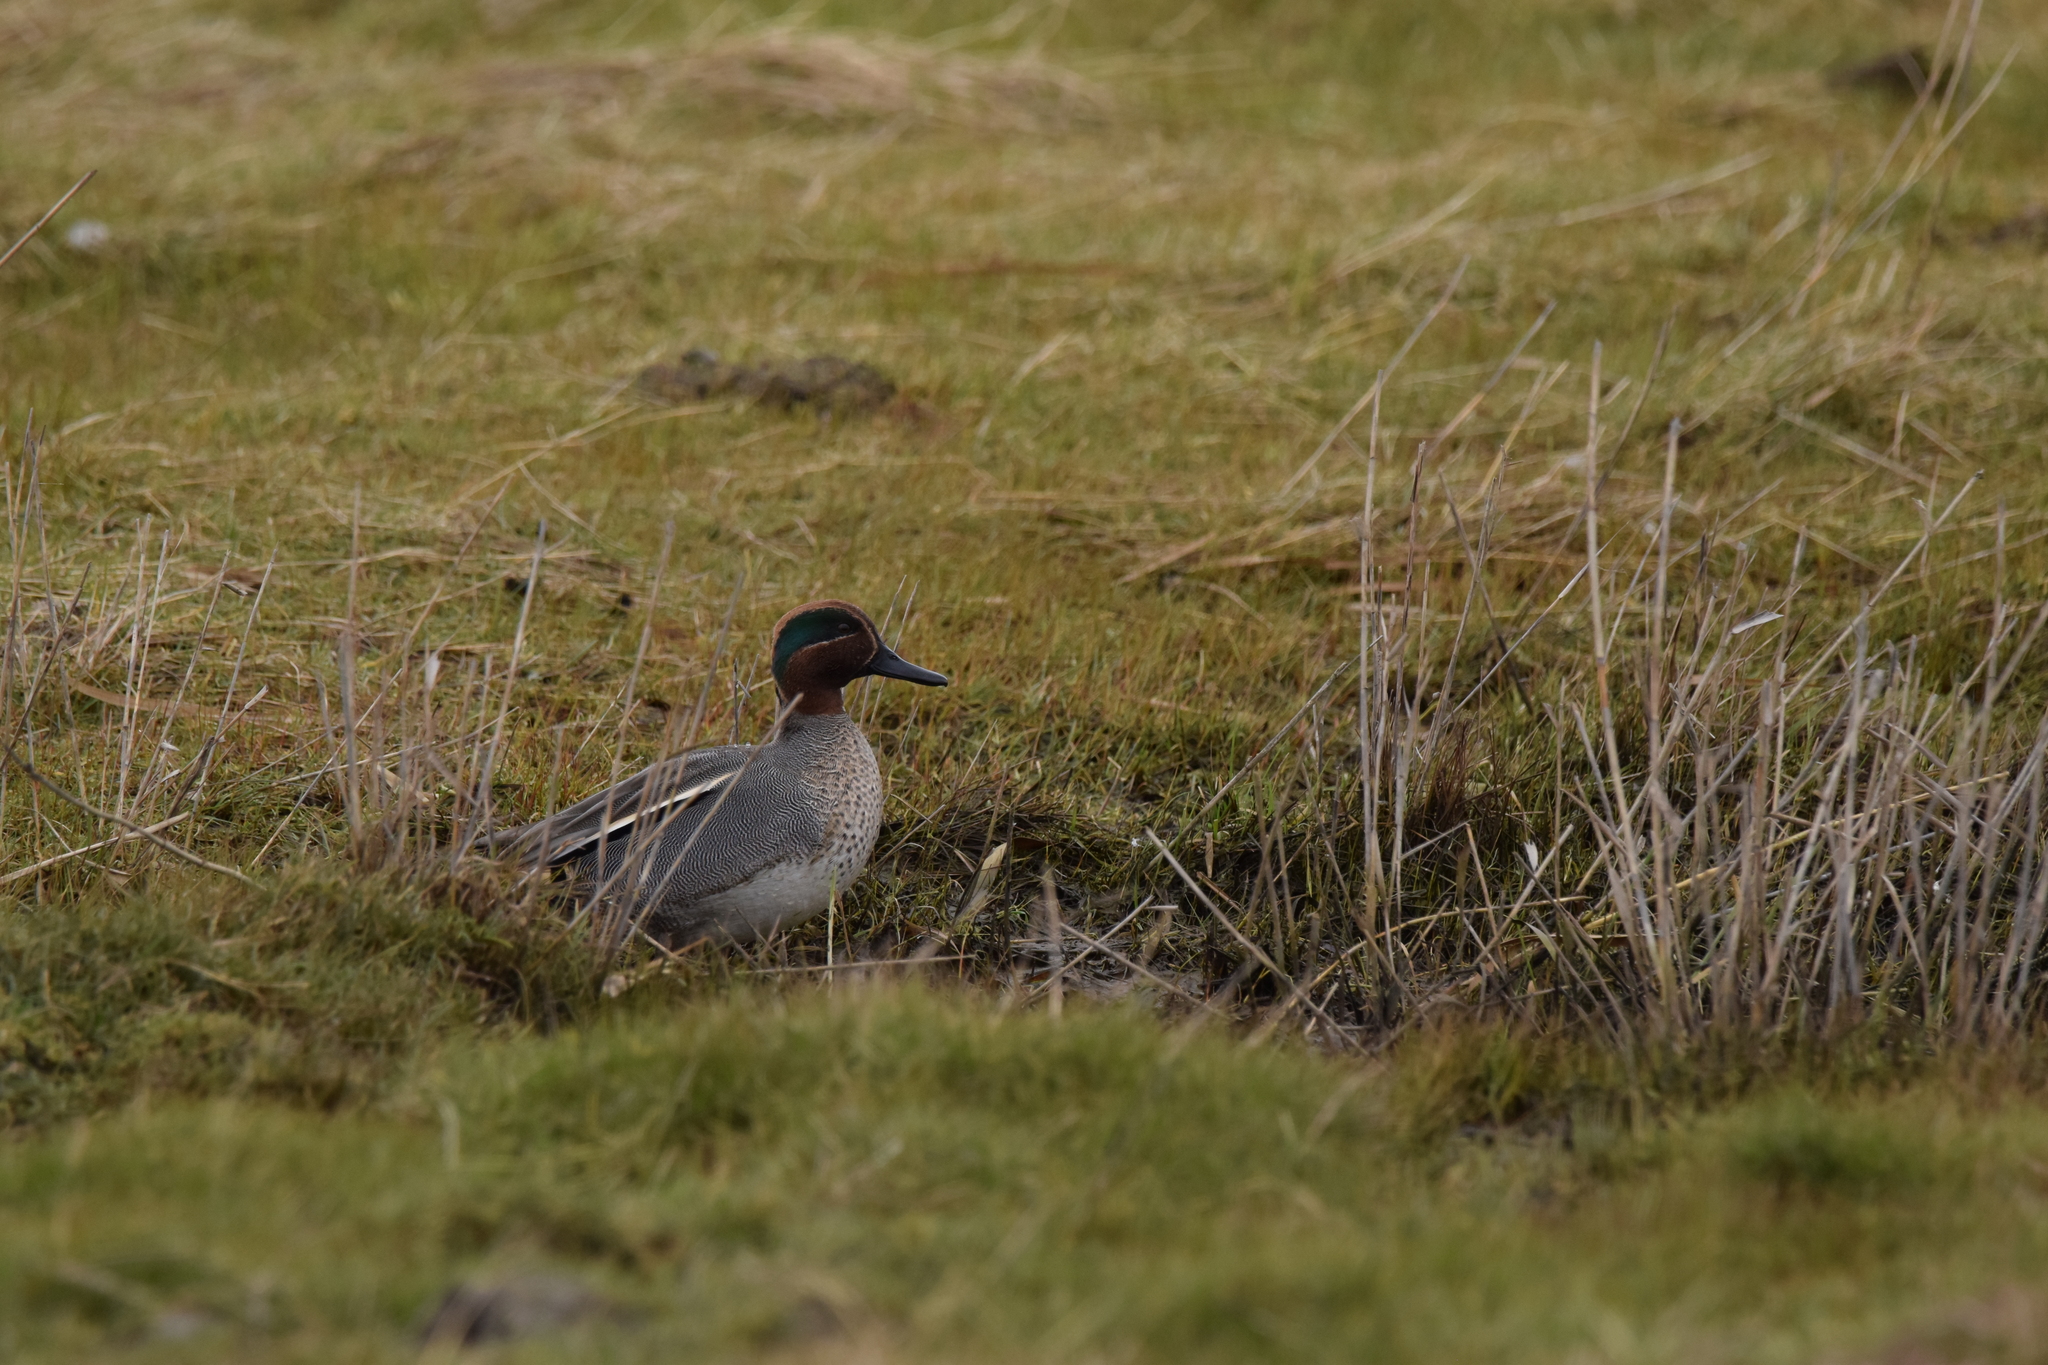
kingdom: Animalia
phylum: Chordata
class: Aves
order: Anseriformes
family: Anatidae
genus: Anas
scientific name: Anas crecca
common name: Eurasian teal
